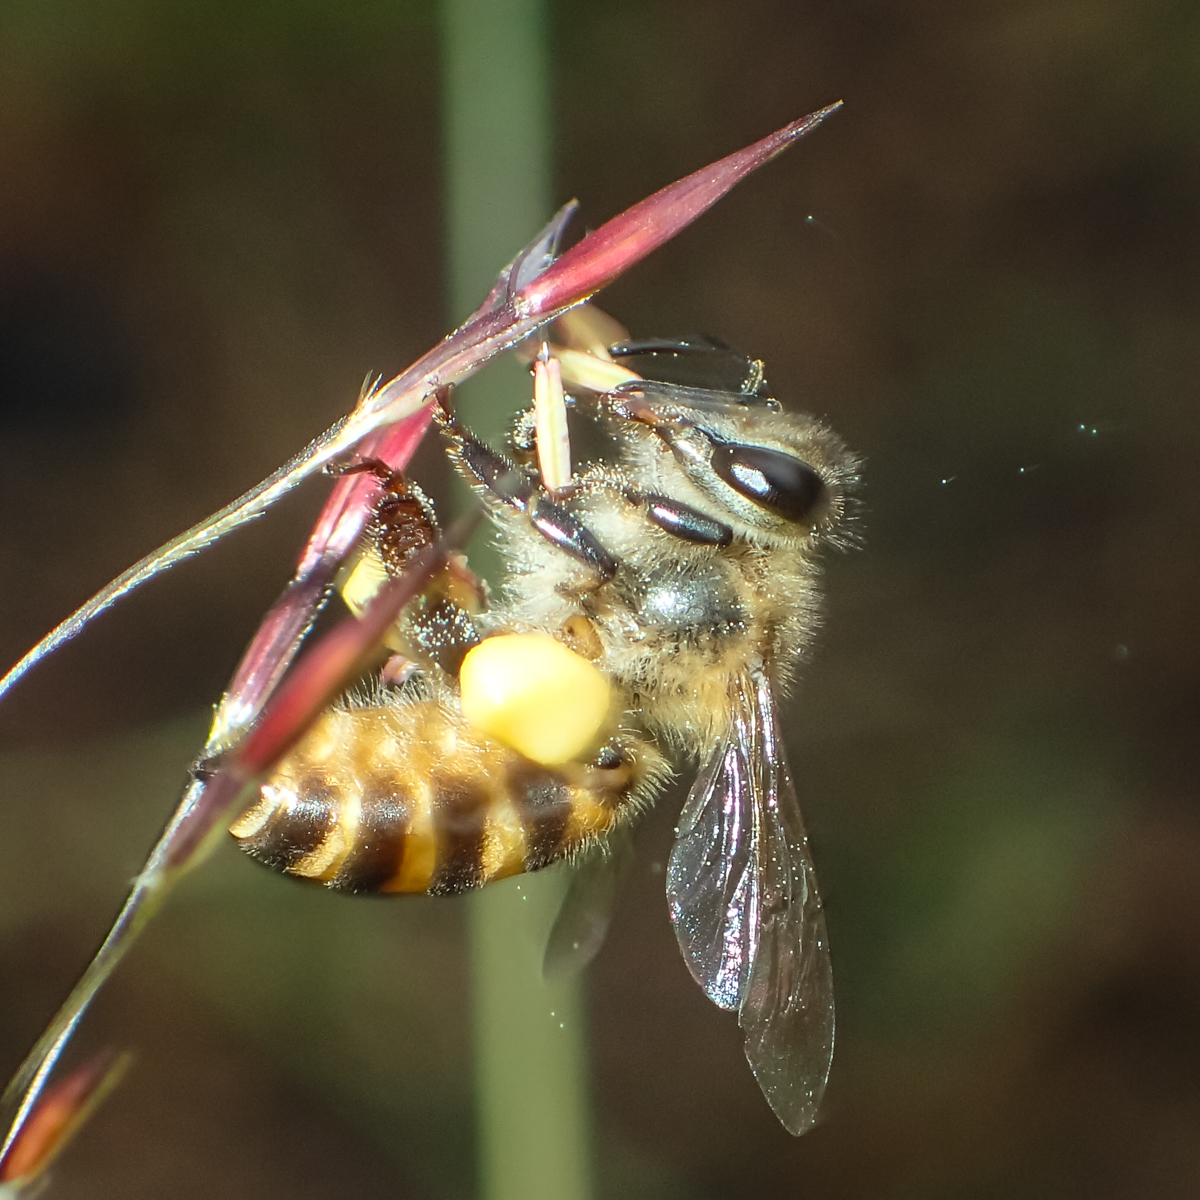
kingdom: Animalia
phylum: Arthropoda
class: Insecta
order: Hymenoptera
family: Apidae
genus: Apis
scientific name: Apis cerana
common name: Honey bee
